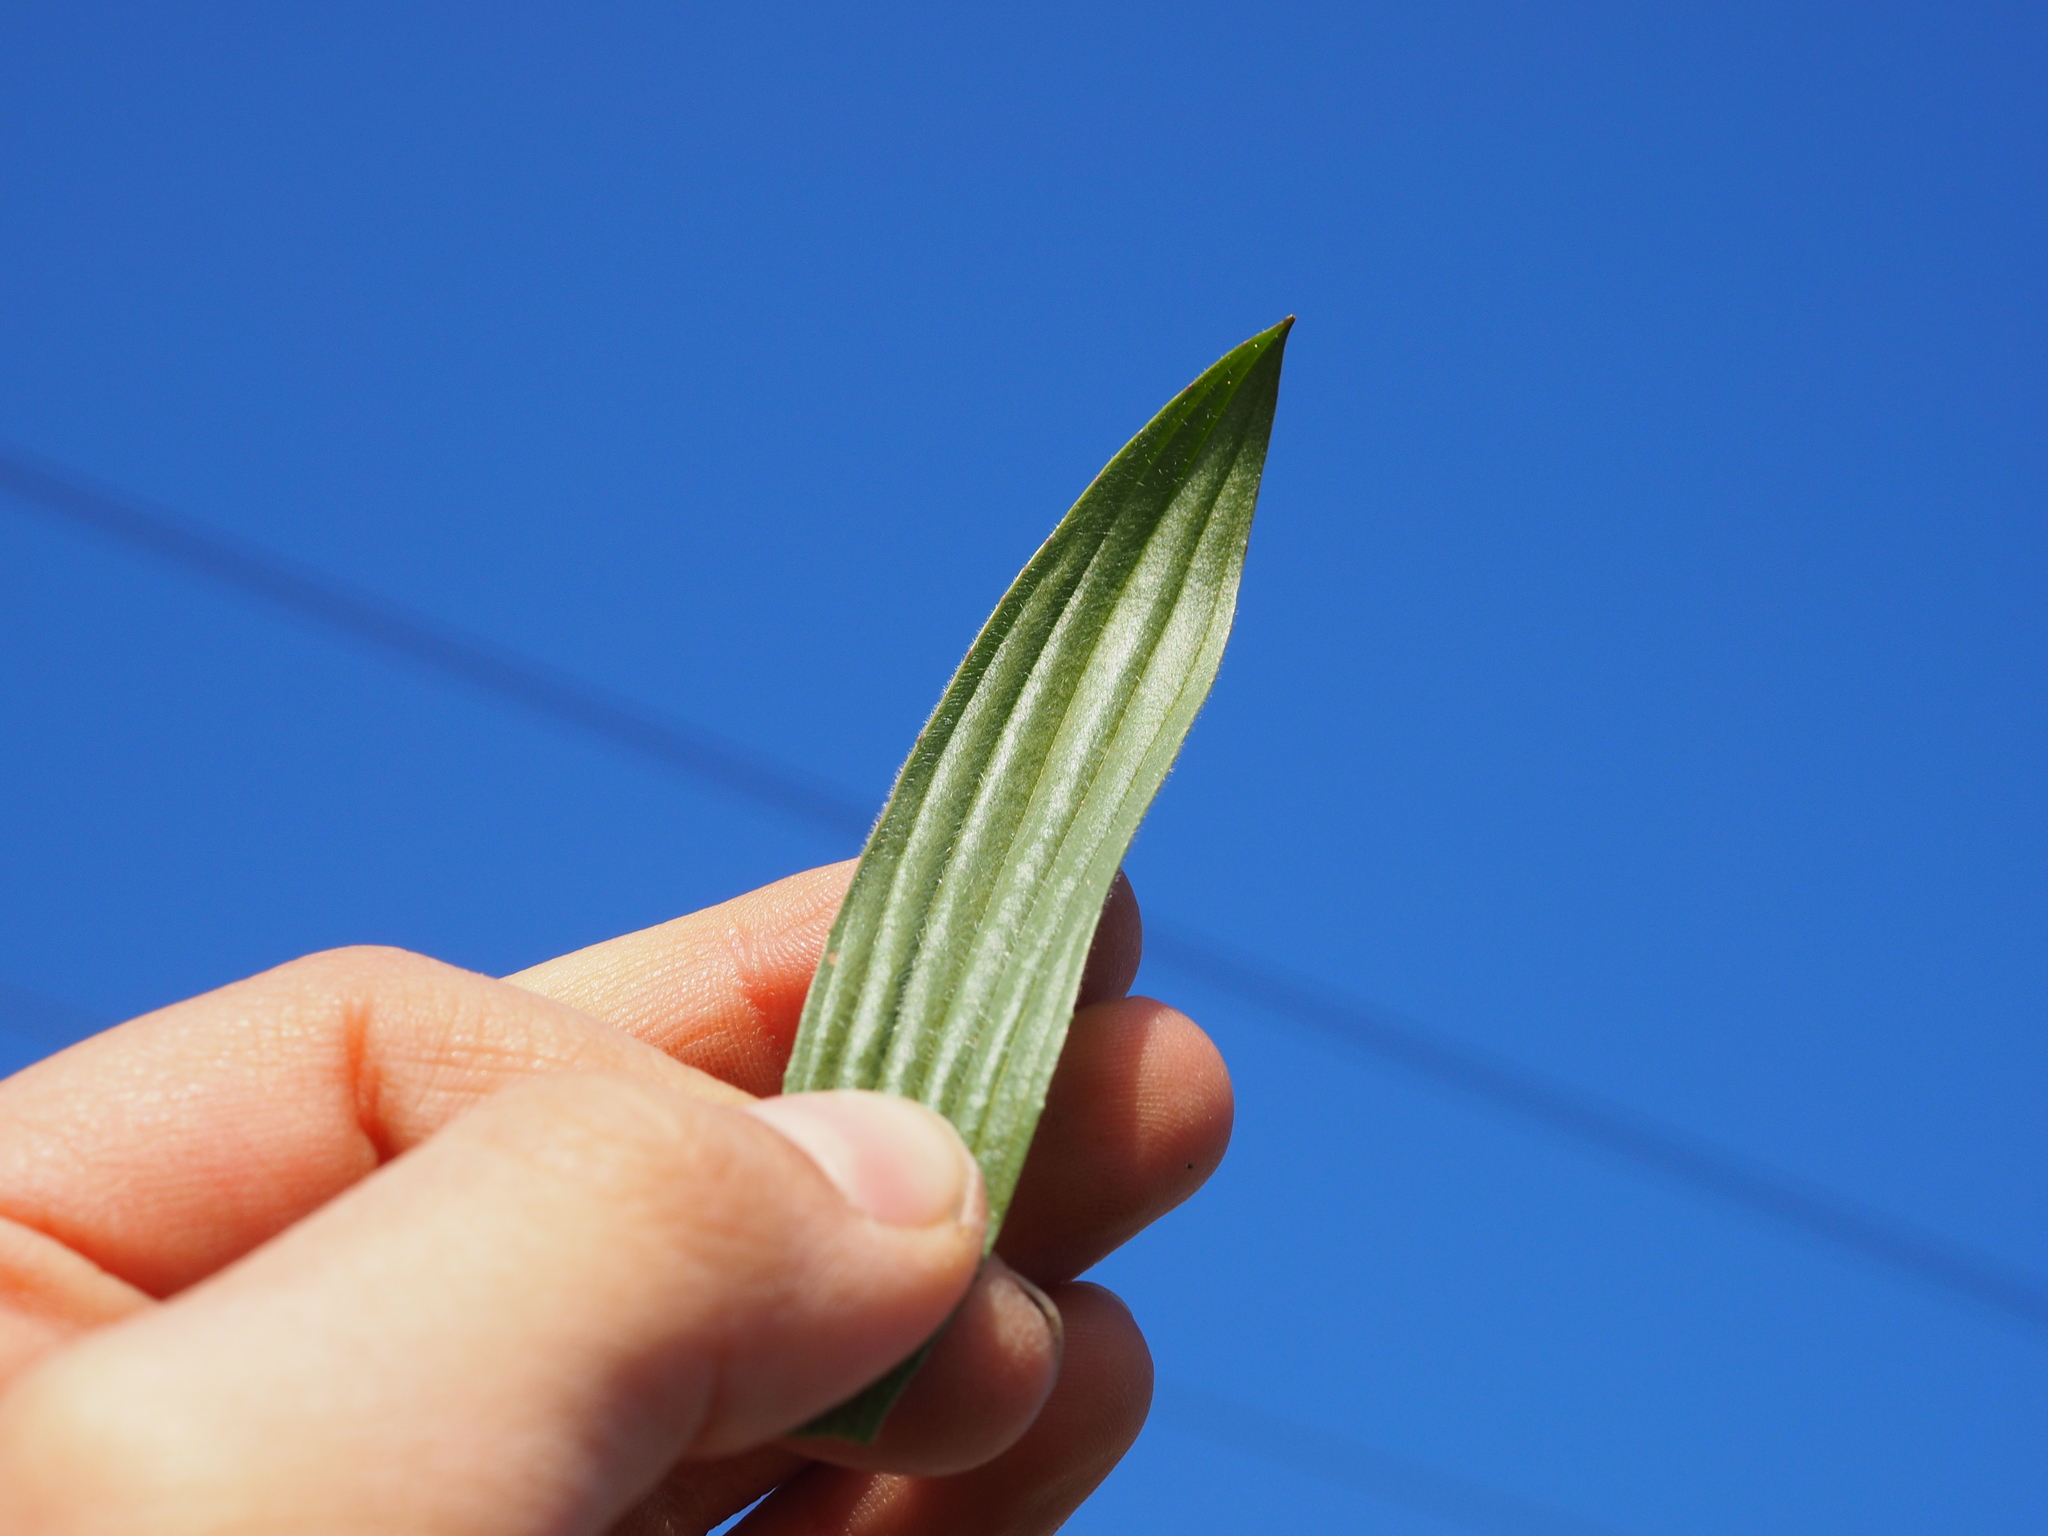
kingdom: Plantae
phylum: Tracheophyta
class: Magnoliopsida
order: Lamiales
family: Plantaginaceae
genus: Plantago
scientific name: Plantago lanceolata
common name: Ribwort plantain
